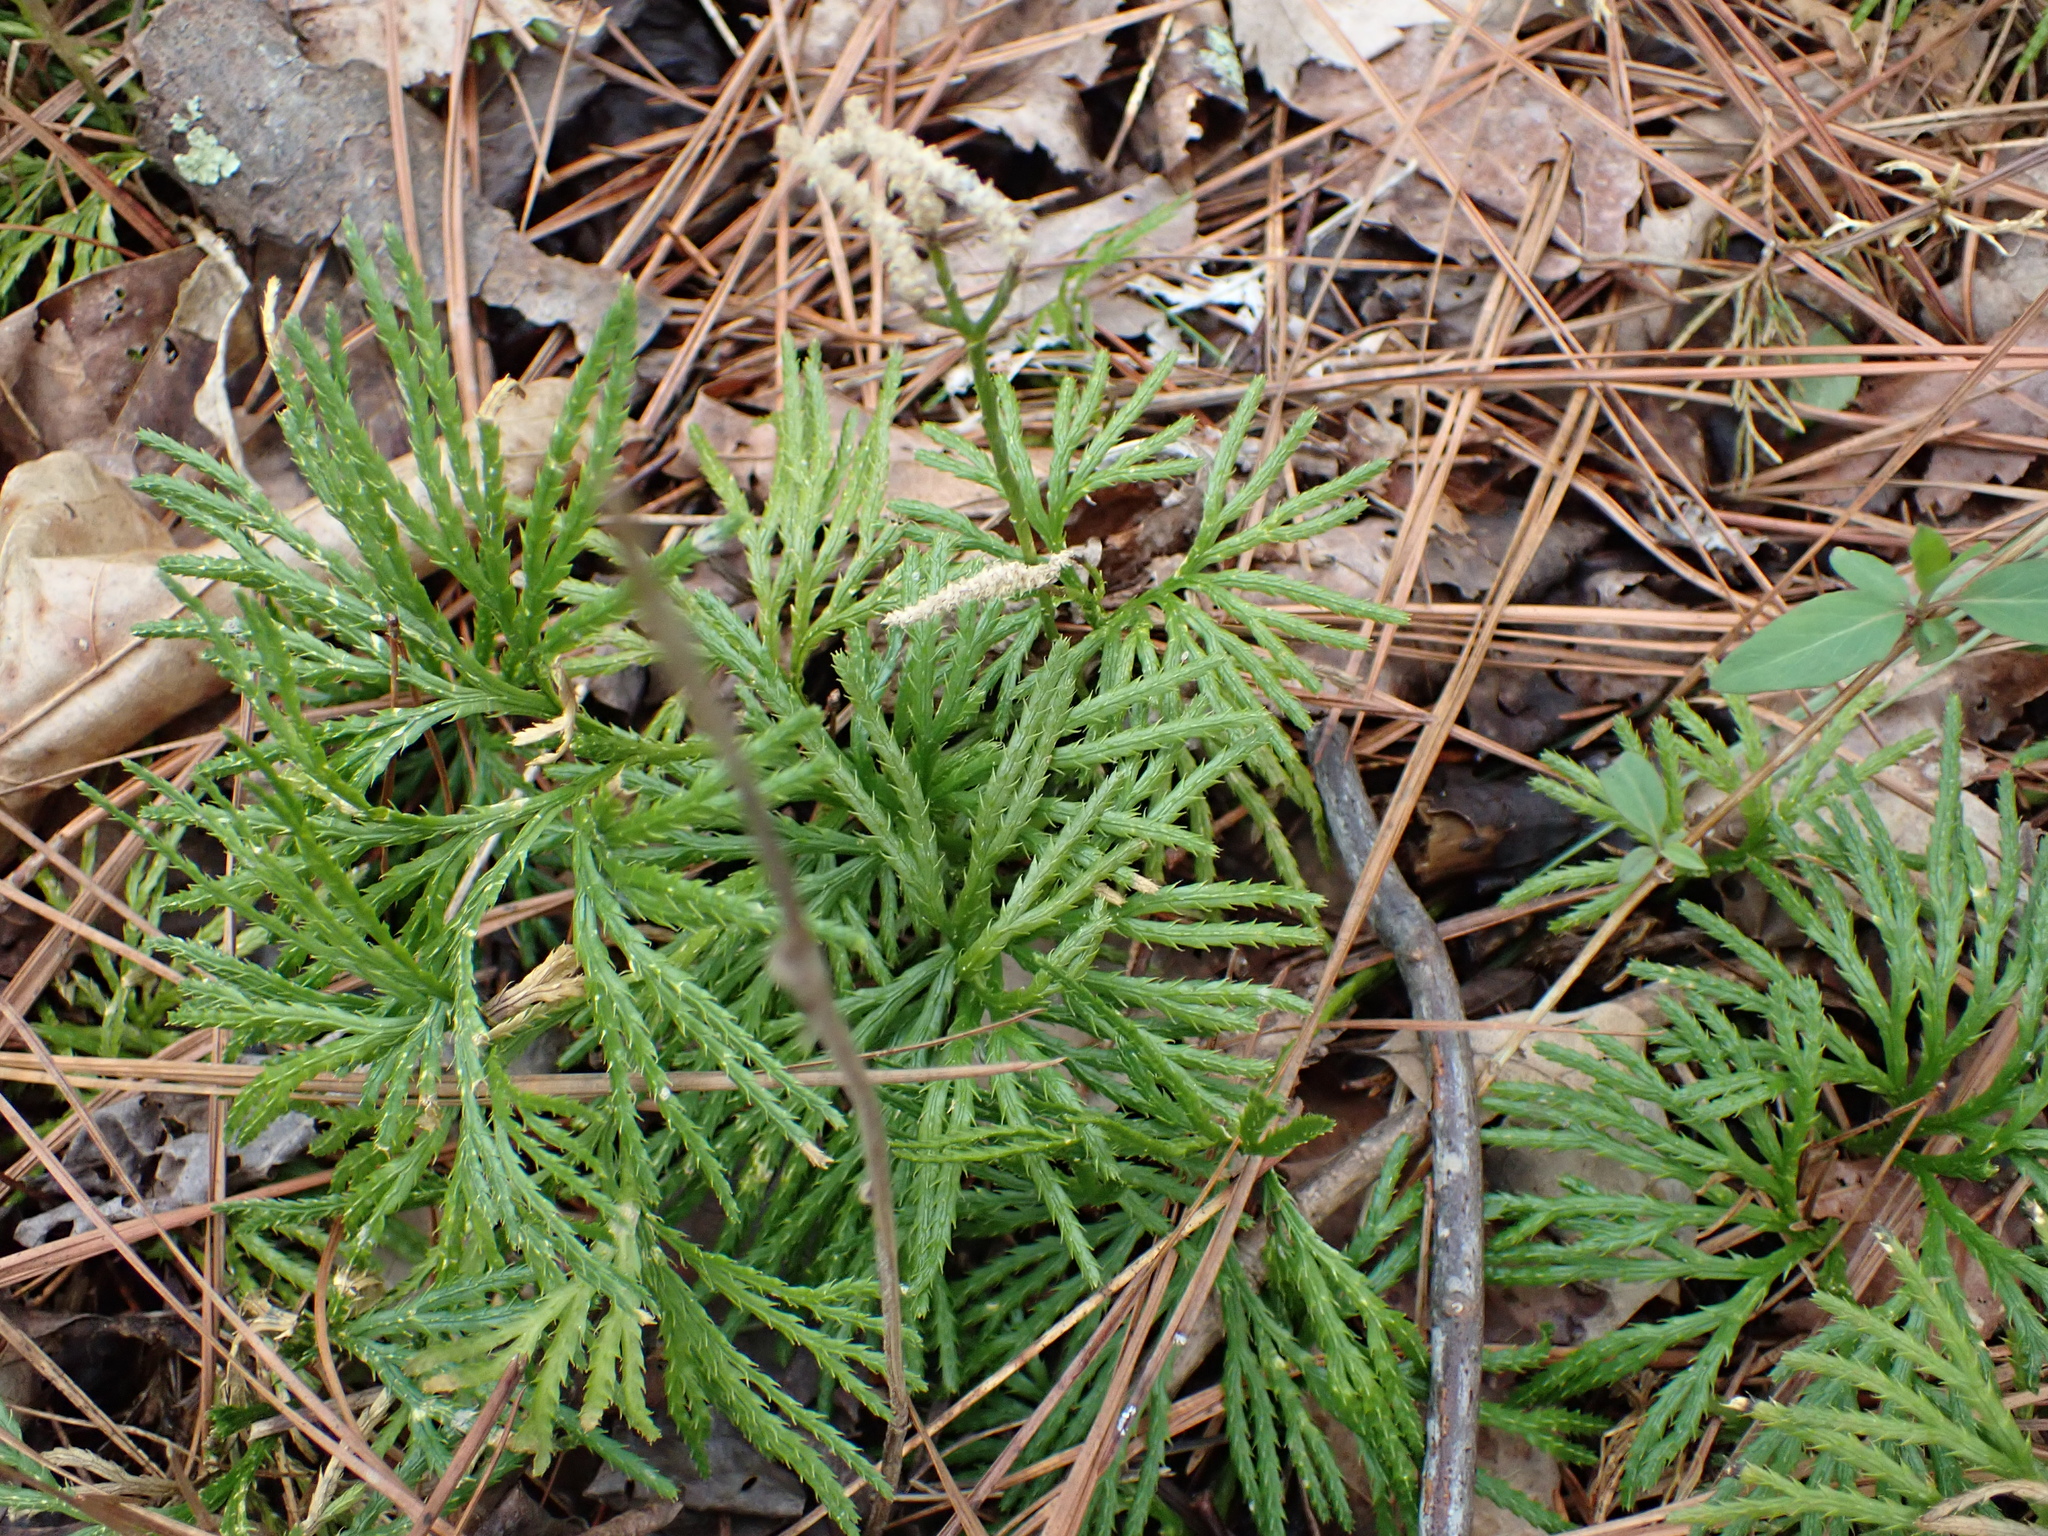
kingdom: Plantae
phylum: Tracheophyta
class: Lycopodiopsida
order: Lycopodiales
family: Lycopodiaceae
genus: Diphasiastrum
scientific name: Diphasiastrum digitatum
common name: Southern running-pine
